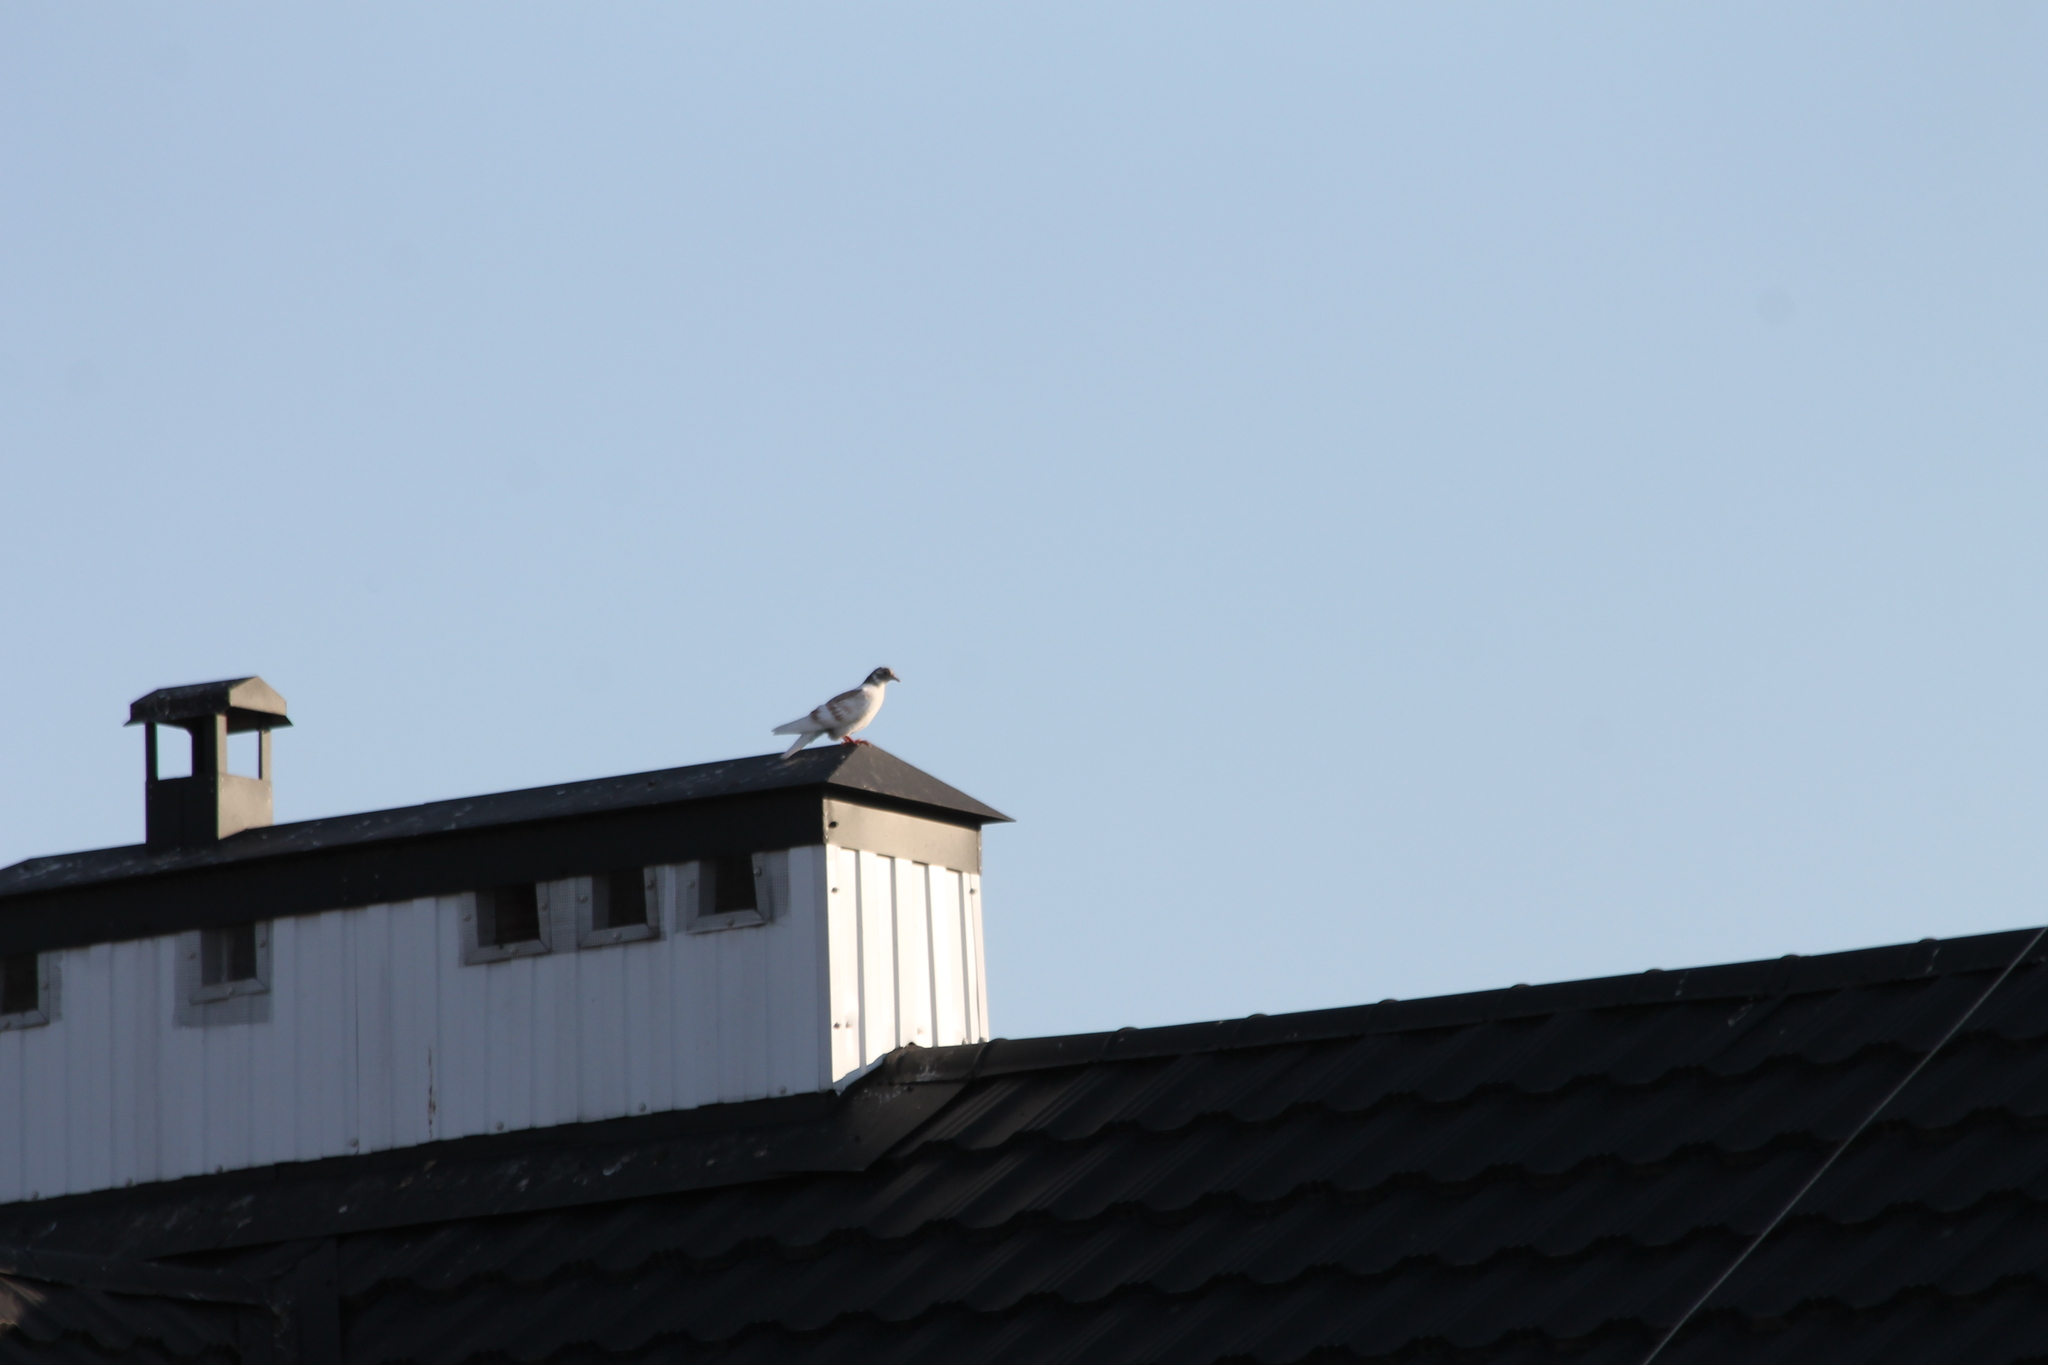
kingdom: Animalia
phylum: Chordata
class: Aves
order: Columbiformes
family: Columbidae
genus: Columba
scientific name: Columba livia
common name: Rock pigeon
